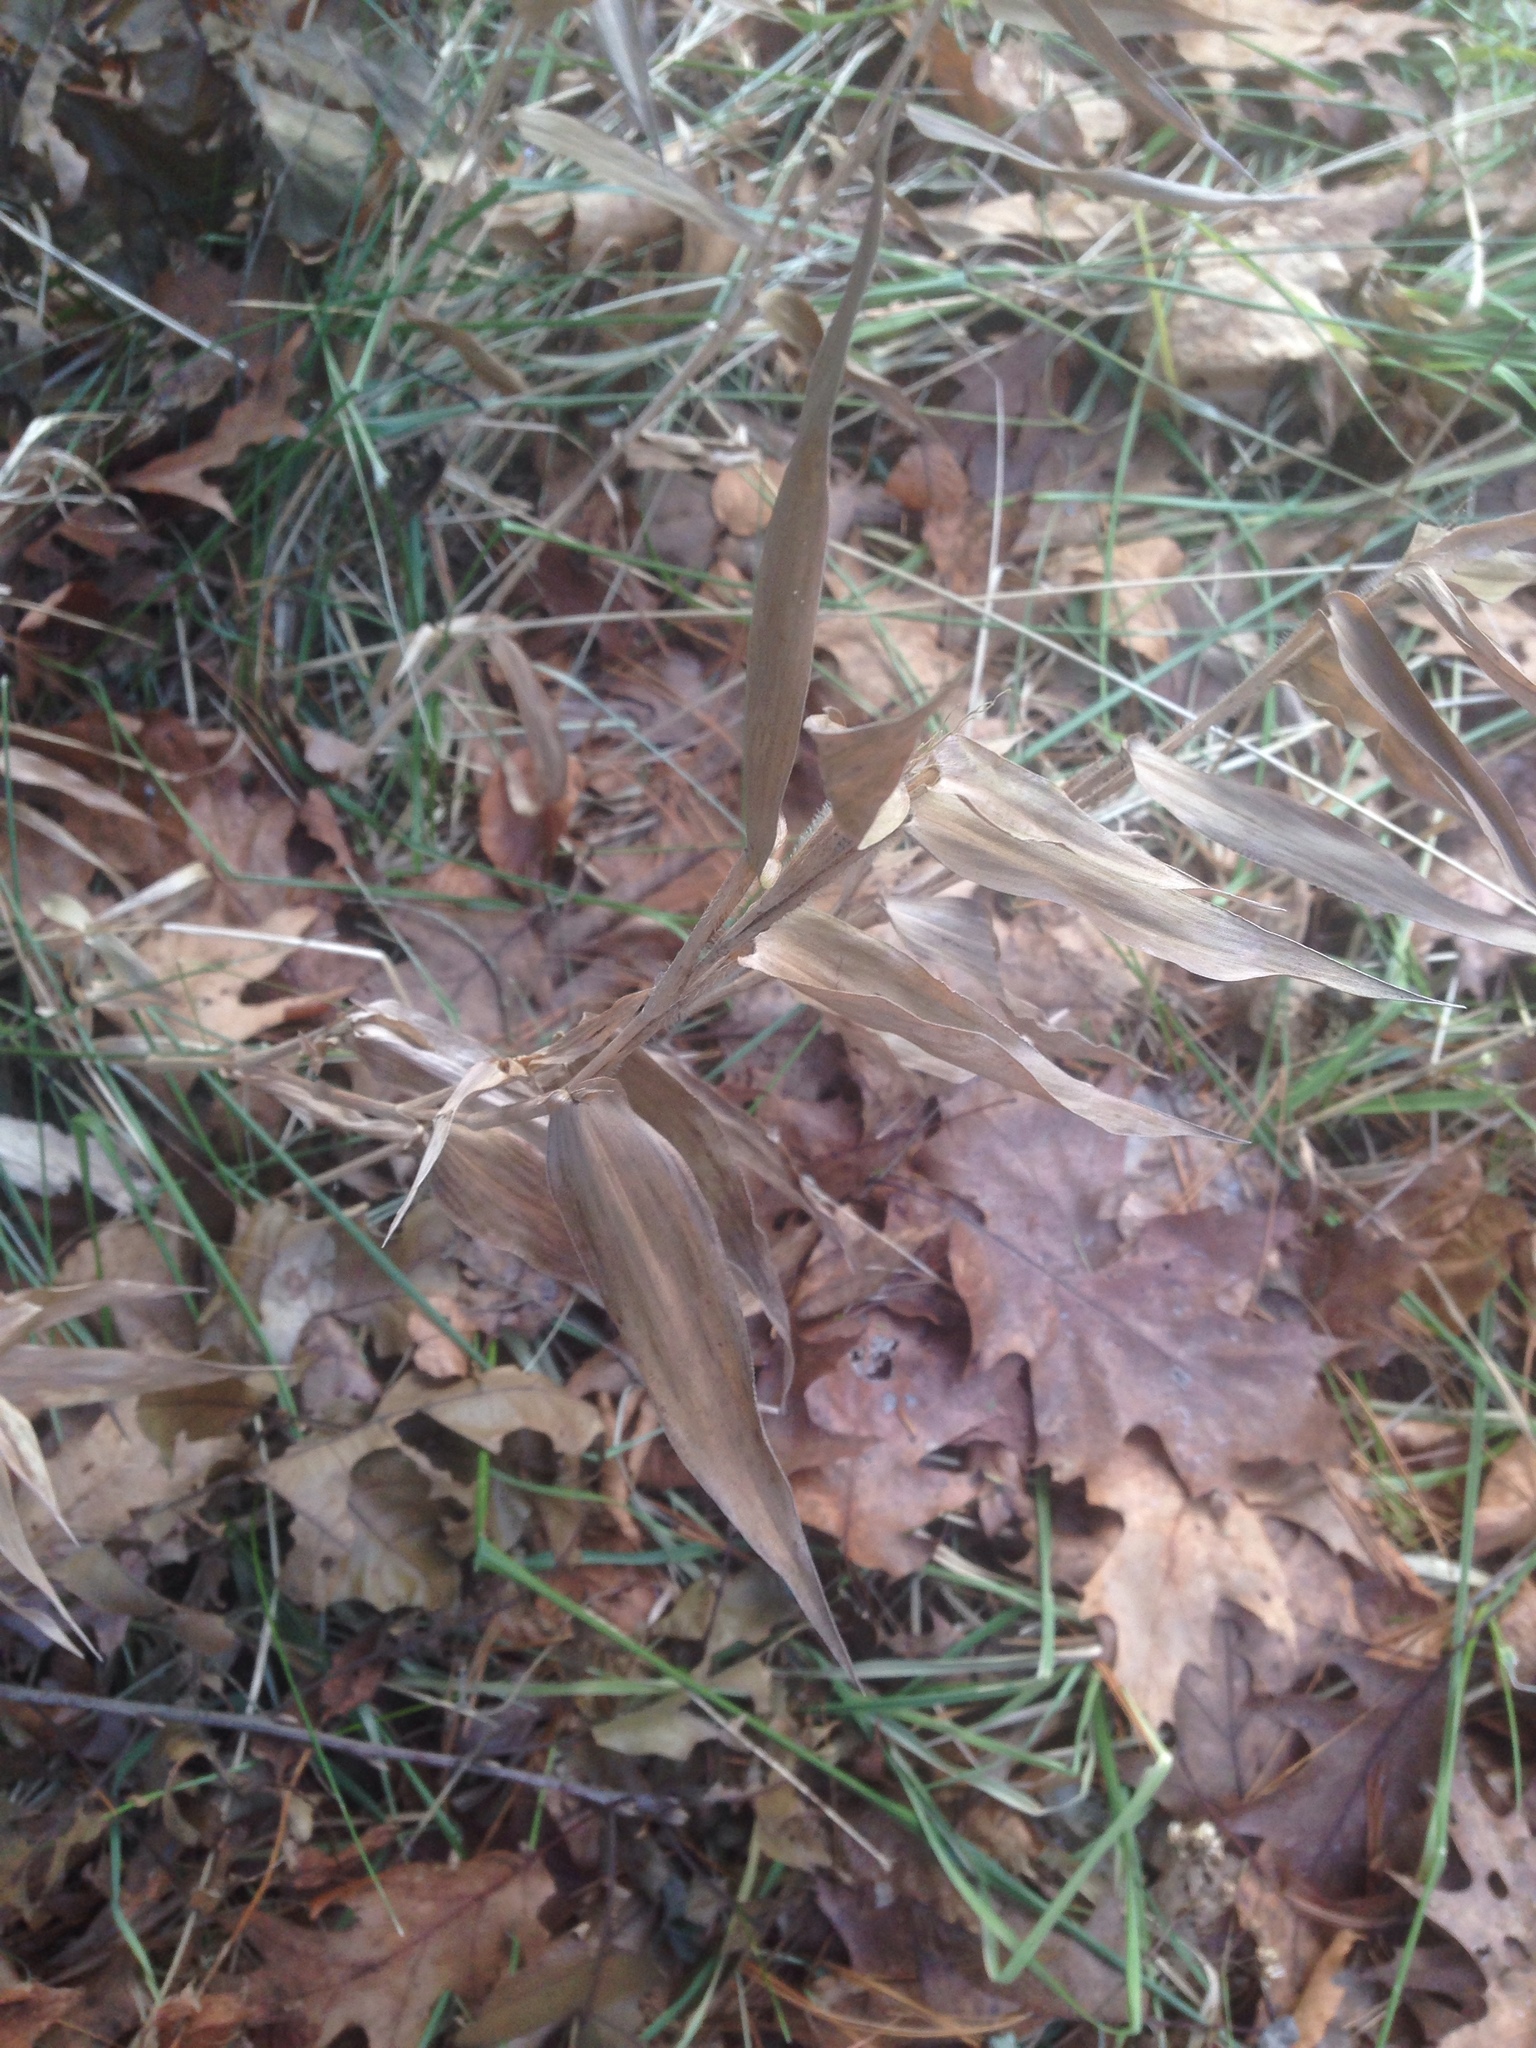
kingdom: Plantae
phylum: Tracheophyta
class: Liliopsida
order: Poales
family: Poaceae
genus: Dichanthelium
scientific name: Dichanthelium clandestinum
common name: Deer-tongue grass
